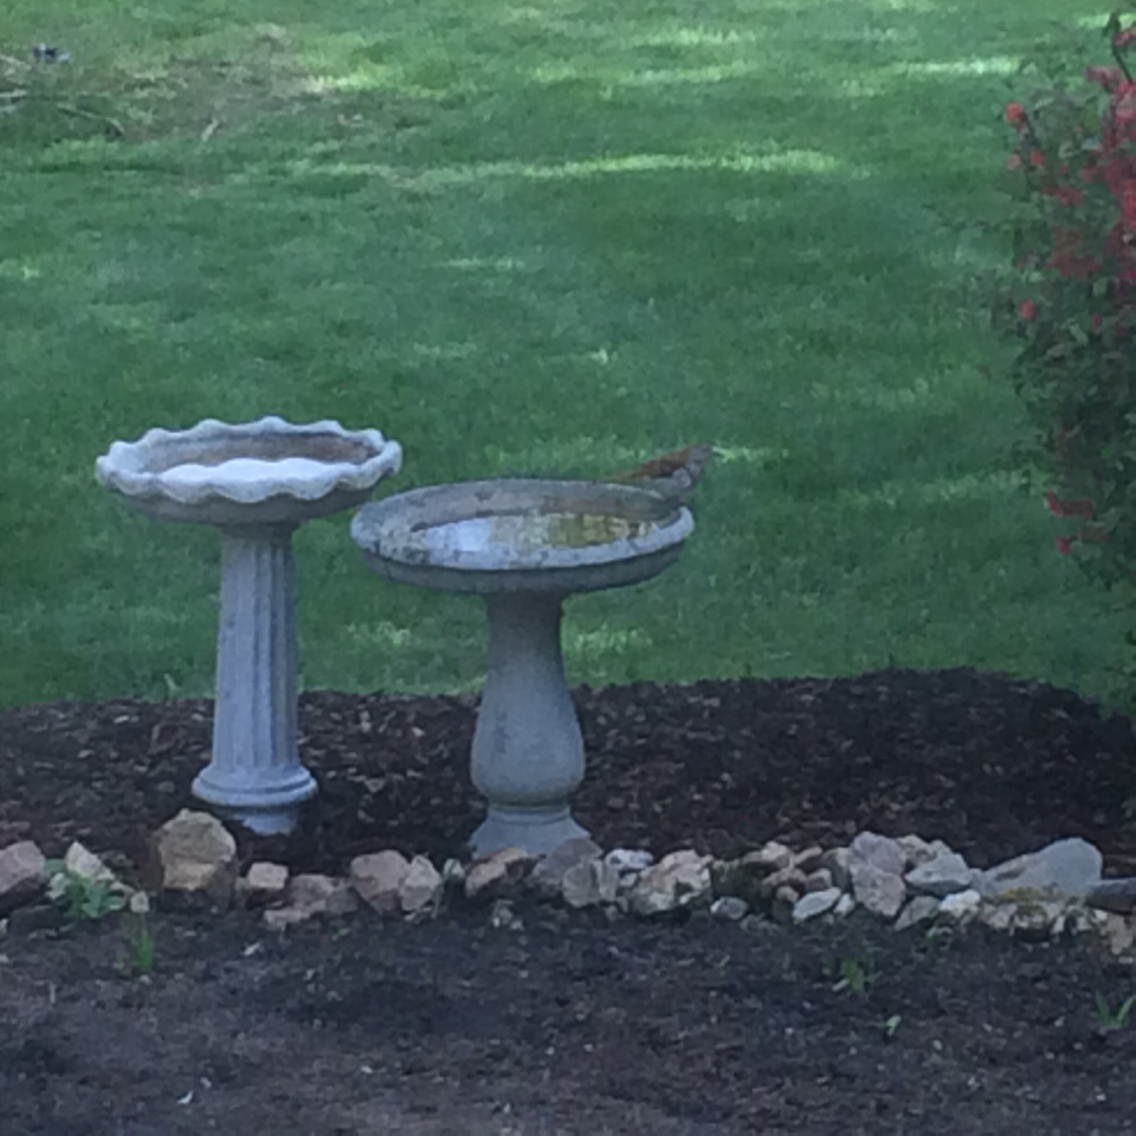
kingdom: Animalia
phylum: Chordata
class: Aves
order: Passeriformes
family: Mimidae
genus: Toxostoma
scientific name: Toxostoma rufum
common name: Brown thrasher
